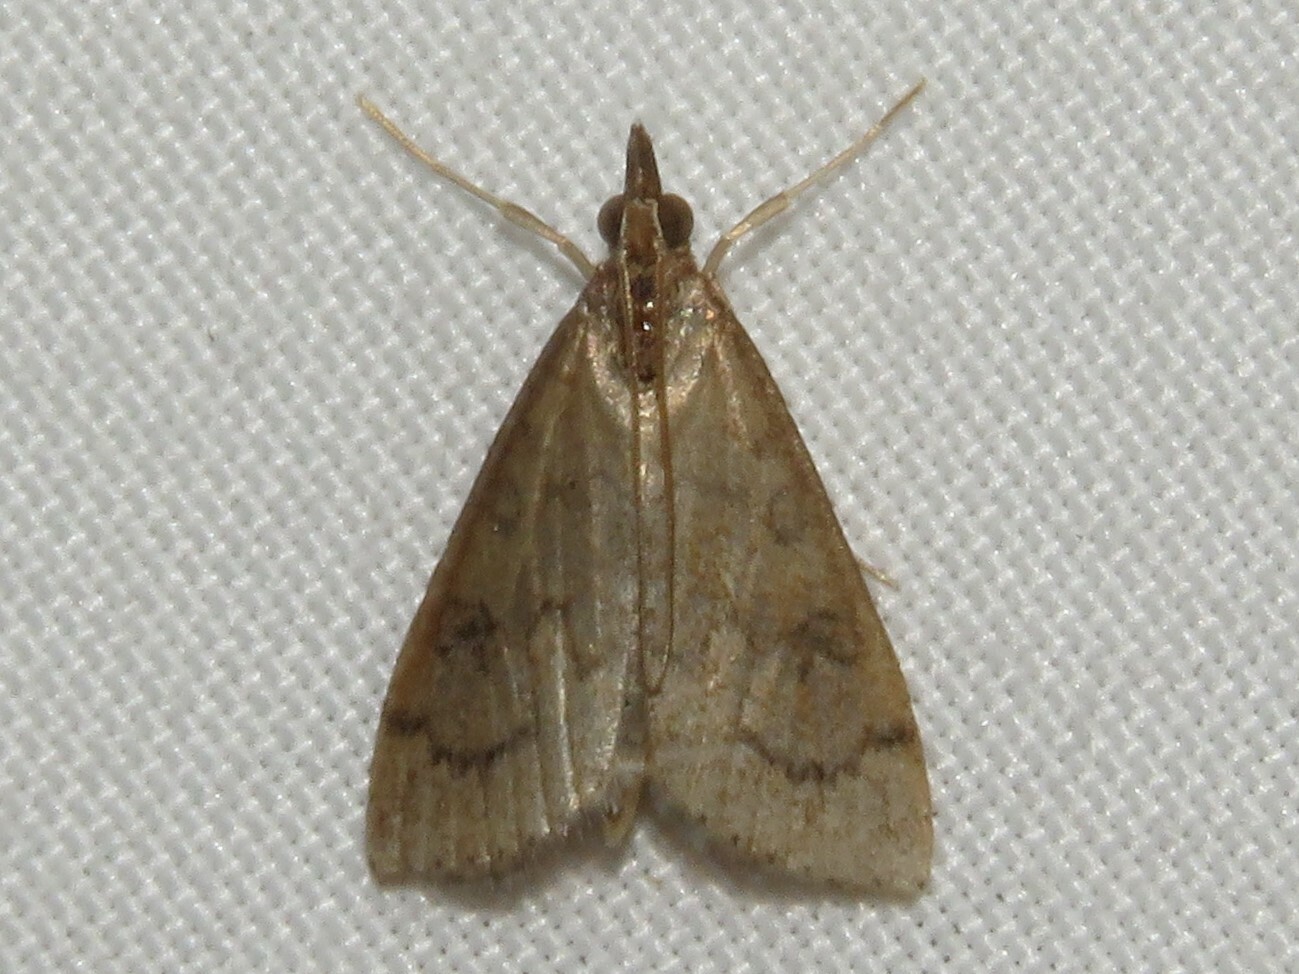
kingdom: Animalia
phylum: Arthropoda
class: Insecta
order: Lepidoptera
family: Crambidae
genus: Udea
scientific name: Udea rubigalis
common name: Celery leaftier moth
